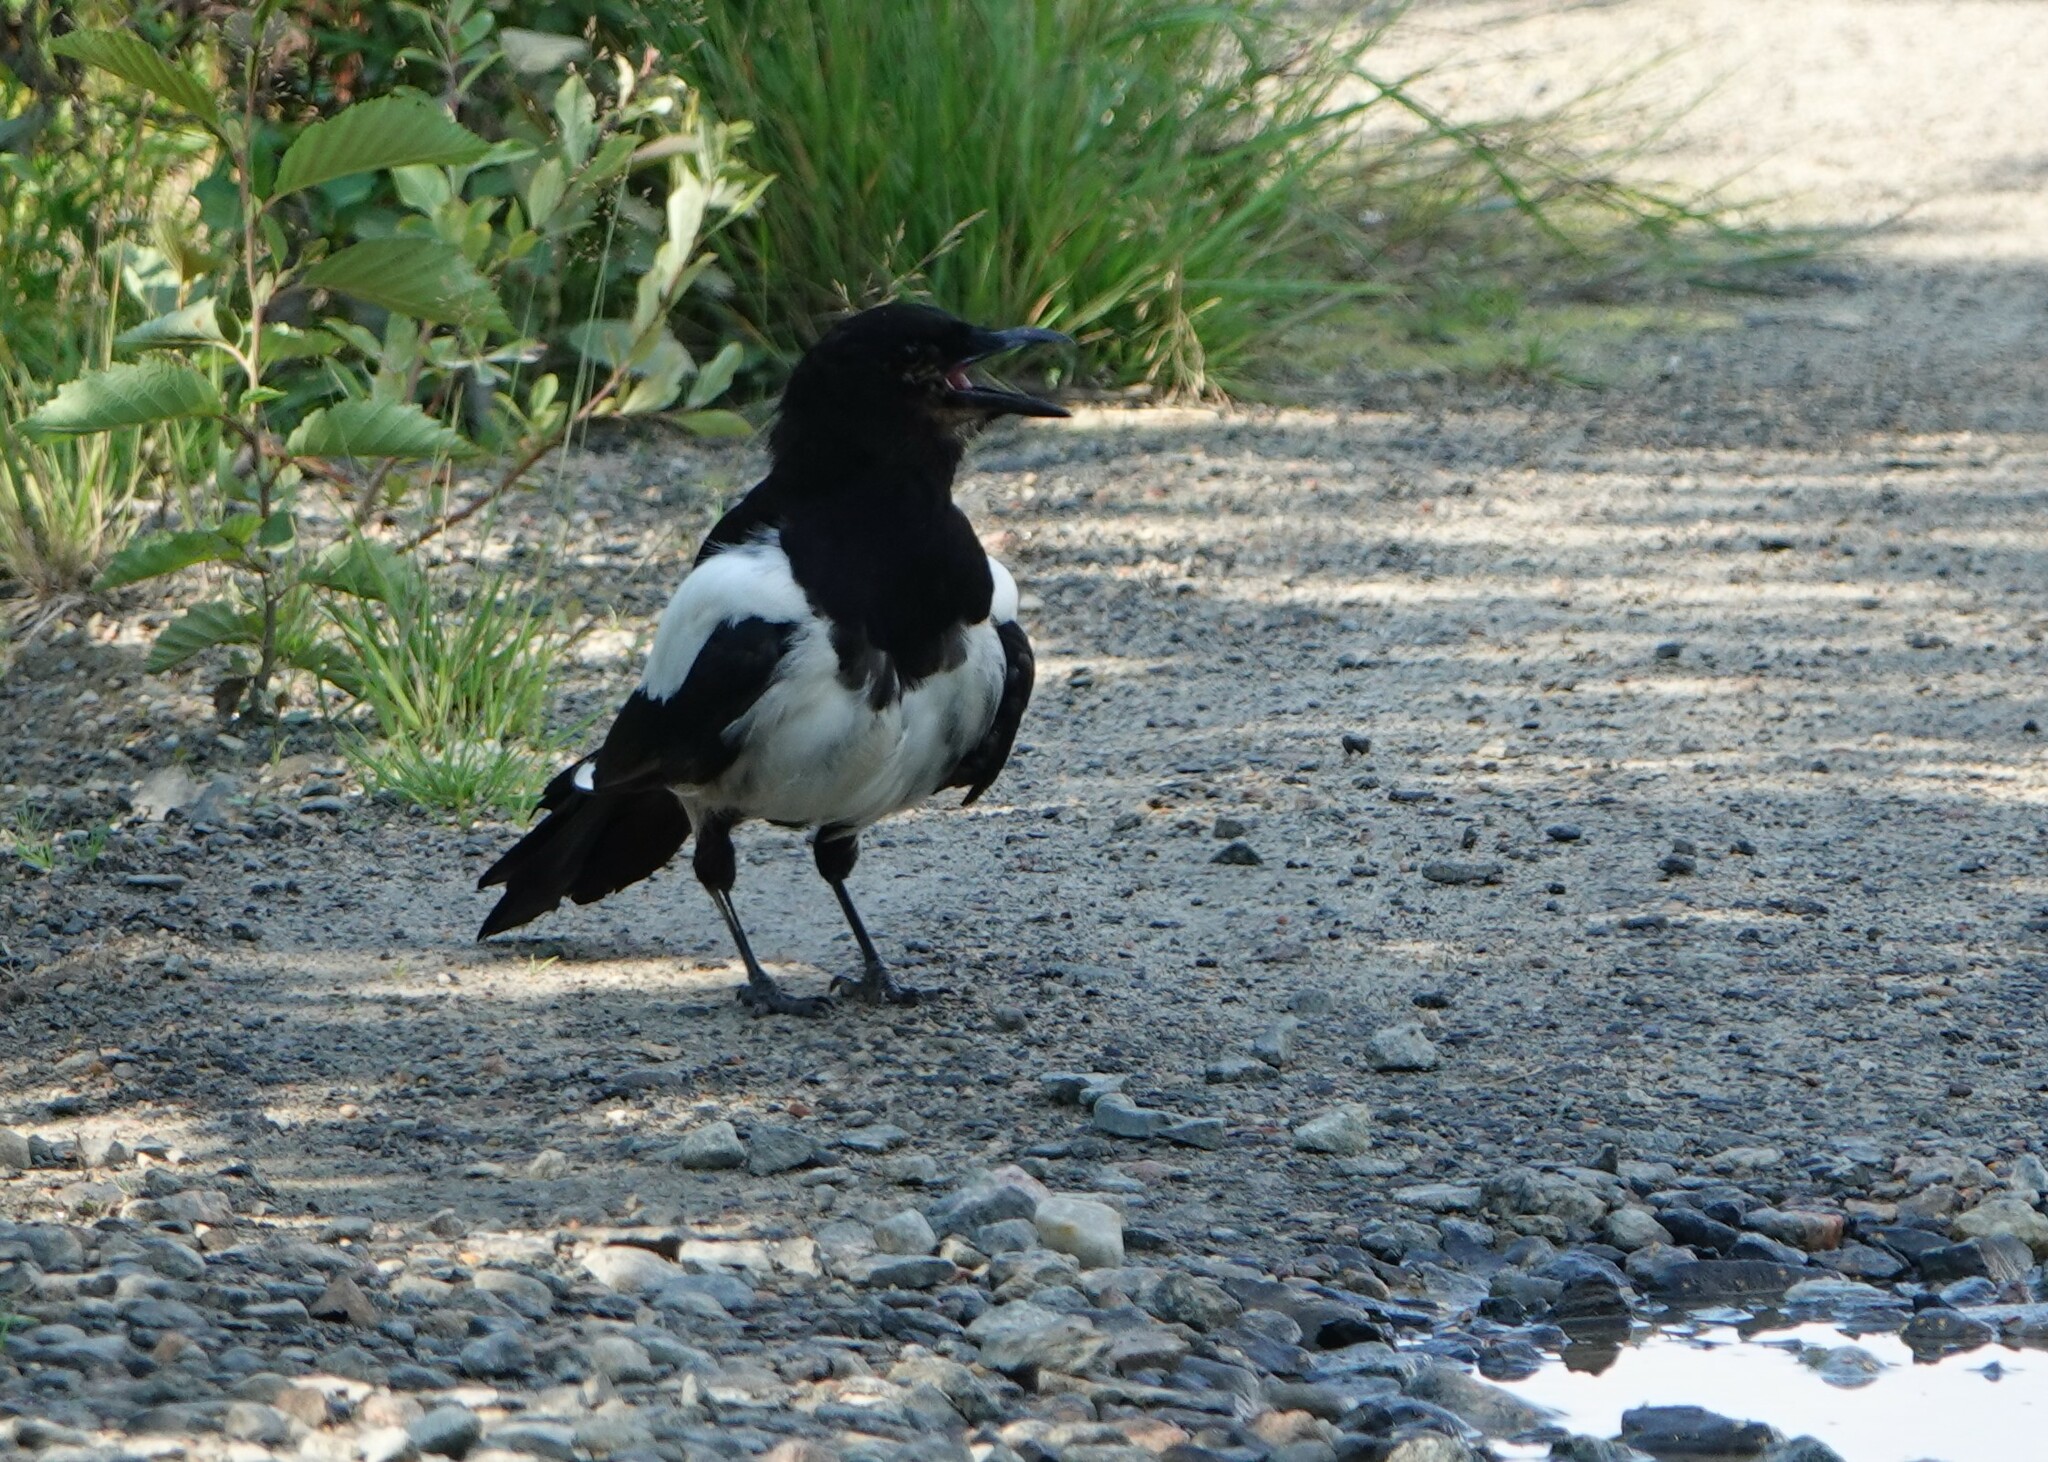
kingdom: Animalia
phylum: Chordata
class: Aves
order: Passeriformes
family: Corvidae
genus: Pica
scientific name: Pica pica
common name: Eurasian magpie
